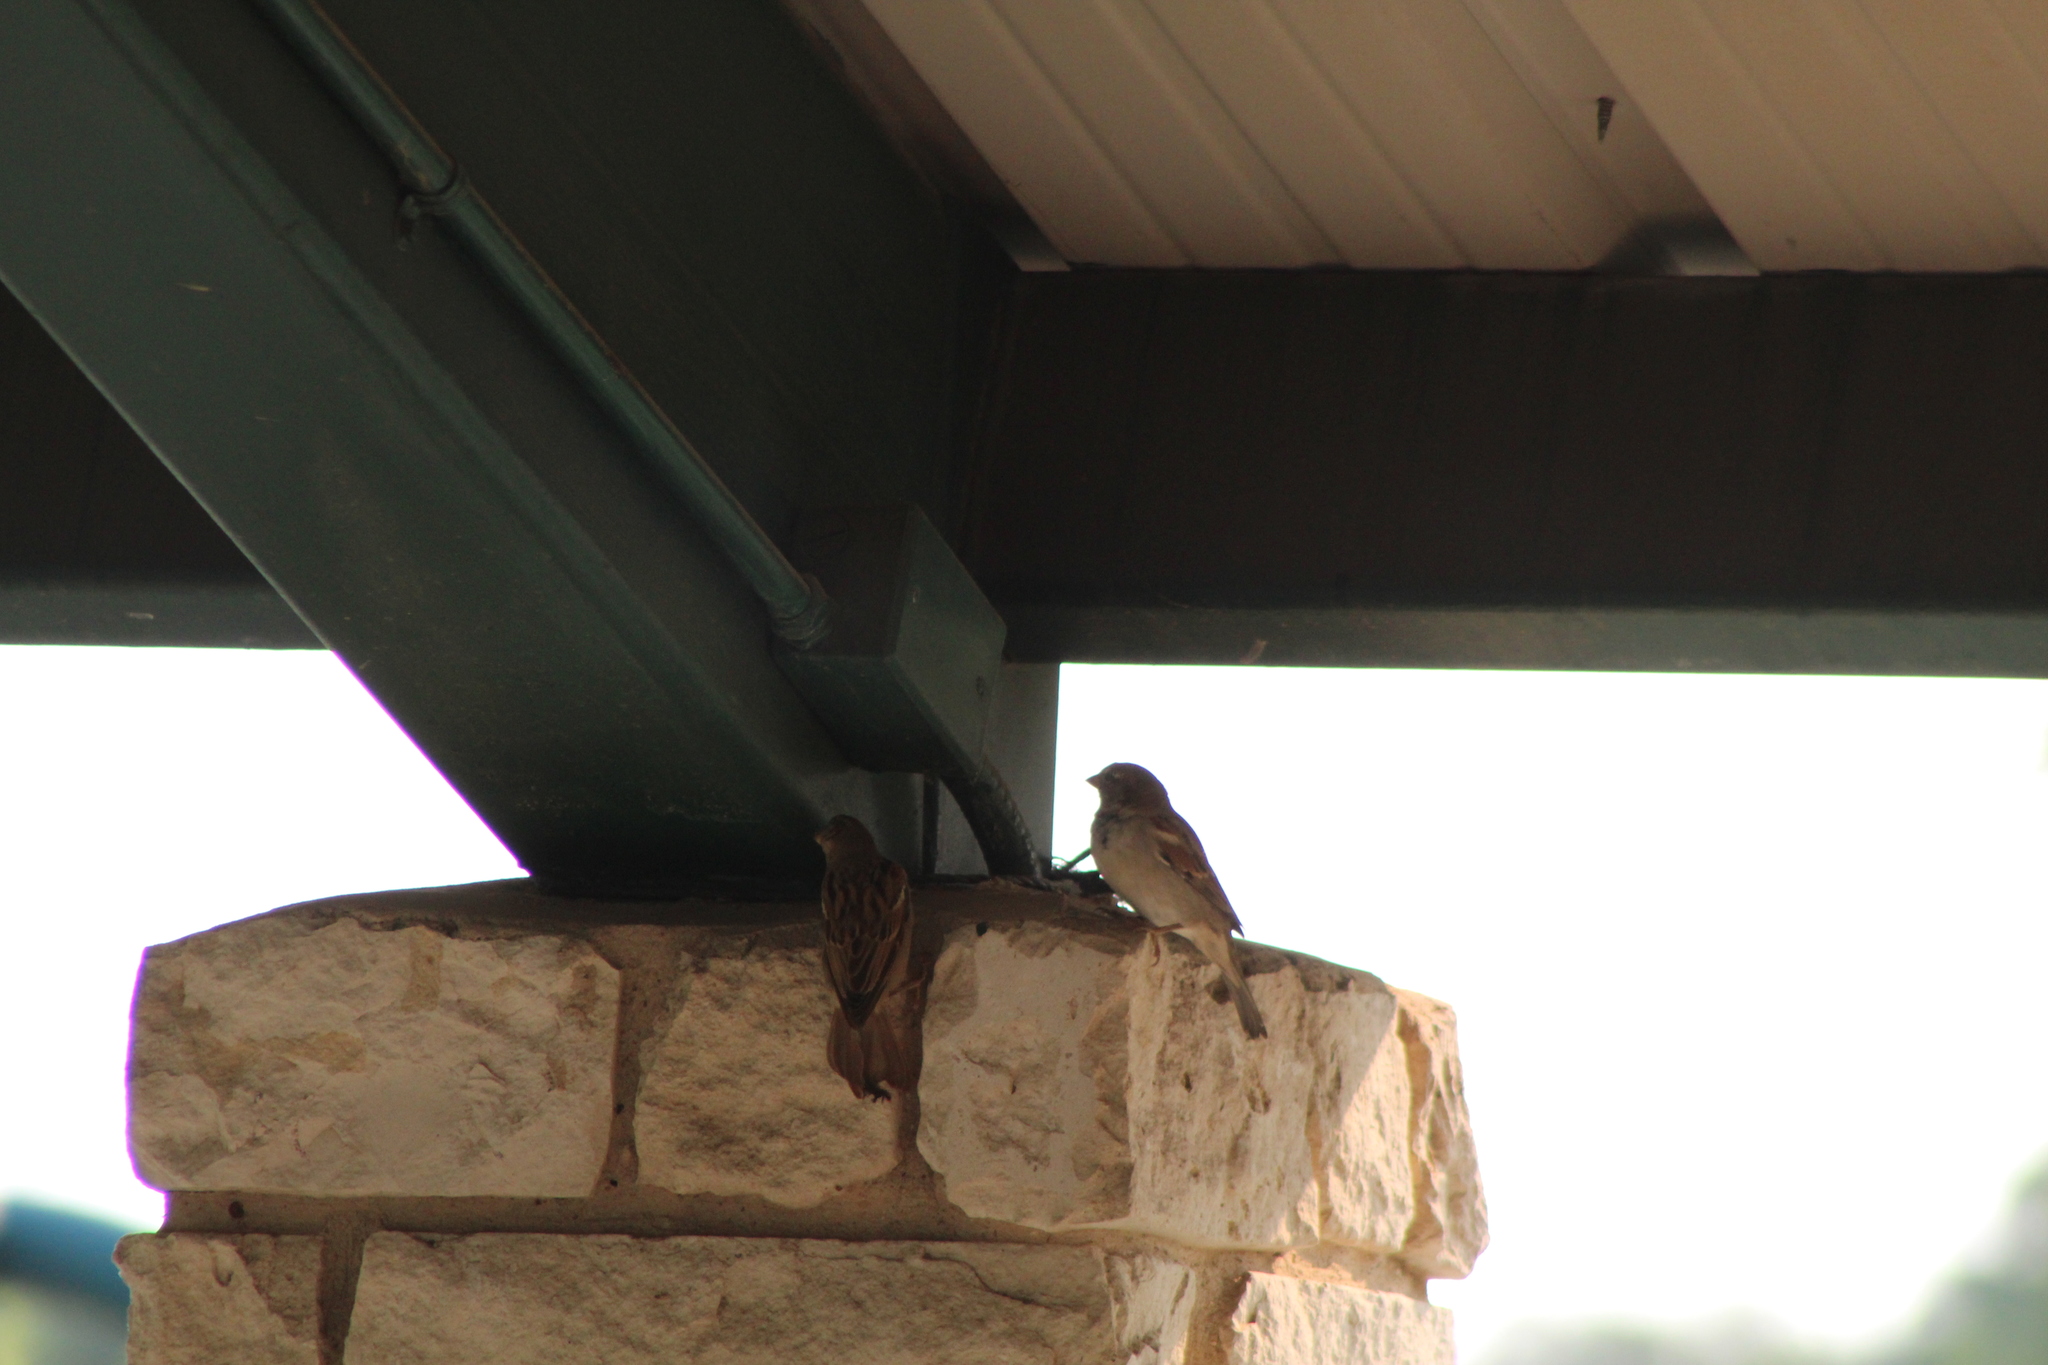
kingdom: Animalia
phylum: Chordata
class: Aves
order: Passeriformes
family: Passeridae
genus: Passer
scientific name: Passer domesticus
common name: House sparrow
